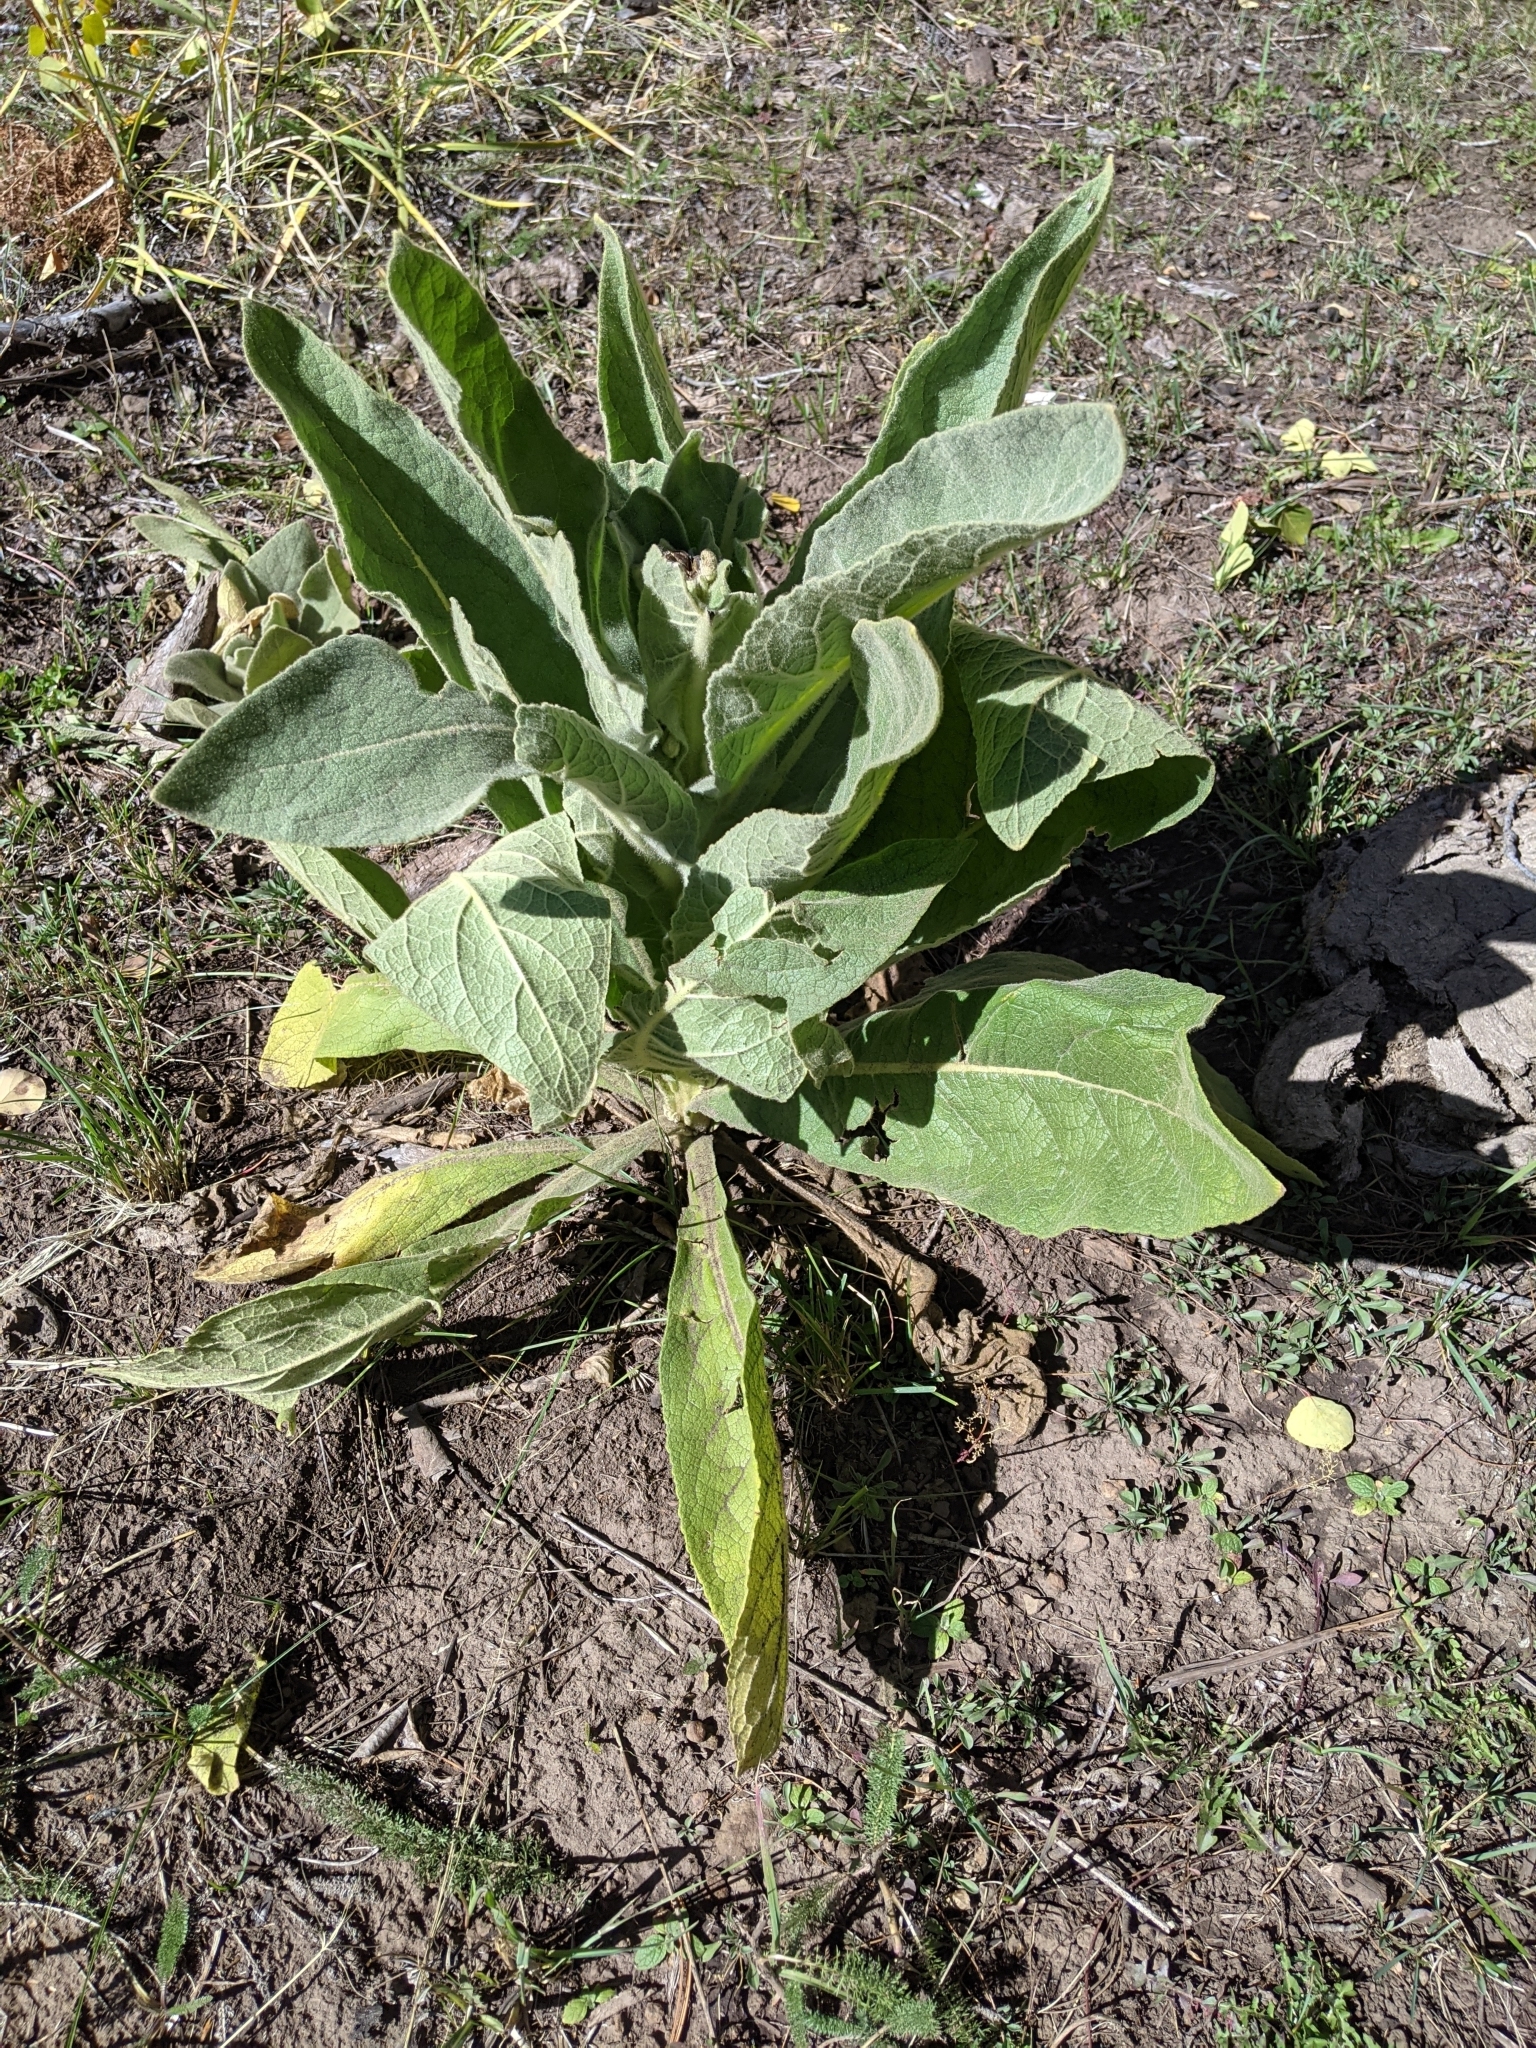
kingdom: Plantae
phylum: Tracheophyta
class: Magnoliopsida
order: Lamiales
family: Scrophulariaceae
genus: Verbascum
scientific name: Verbascum thapsus
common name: Common mullein
